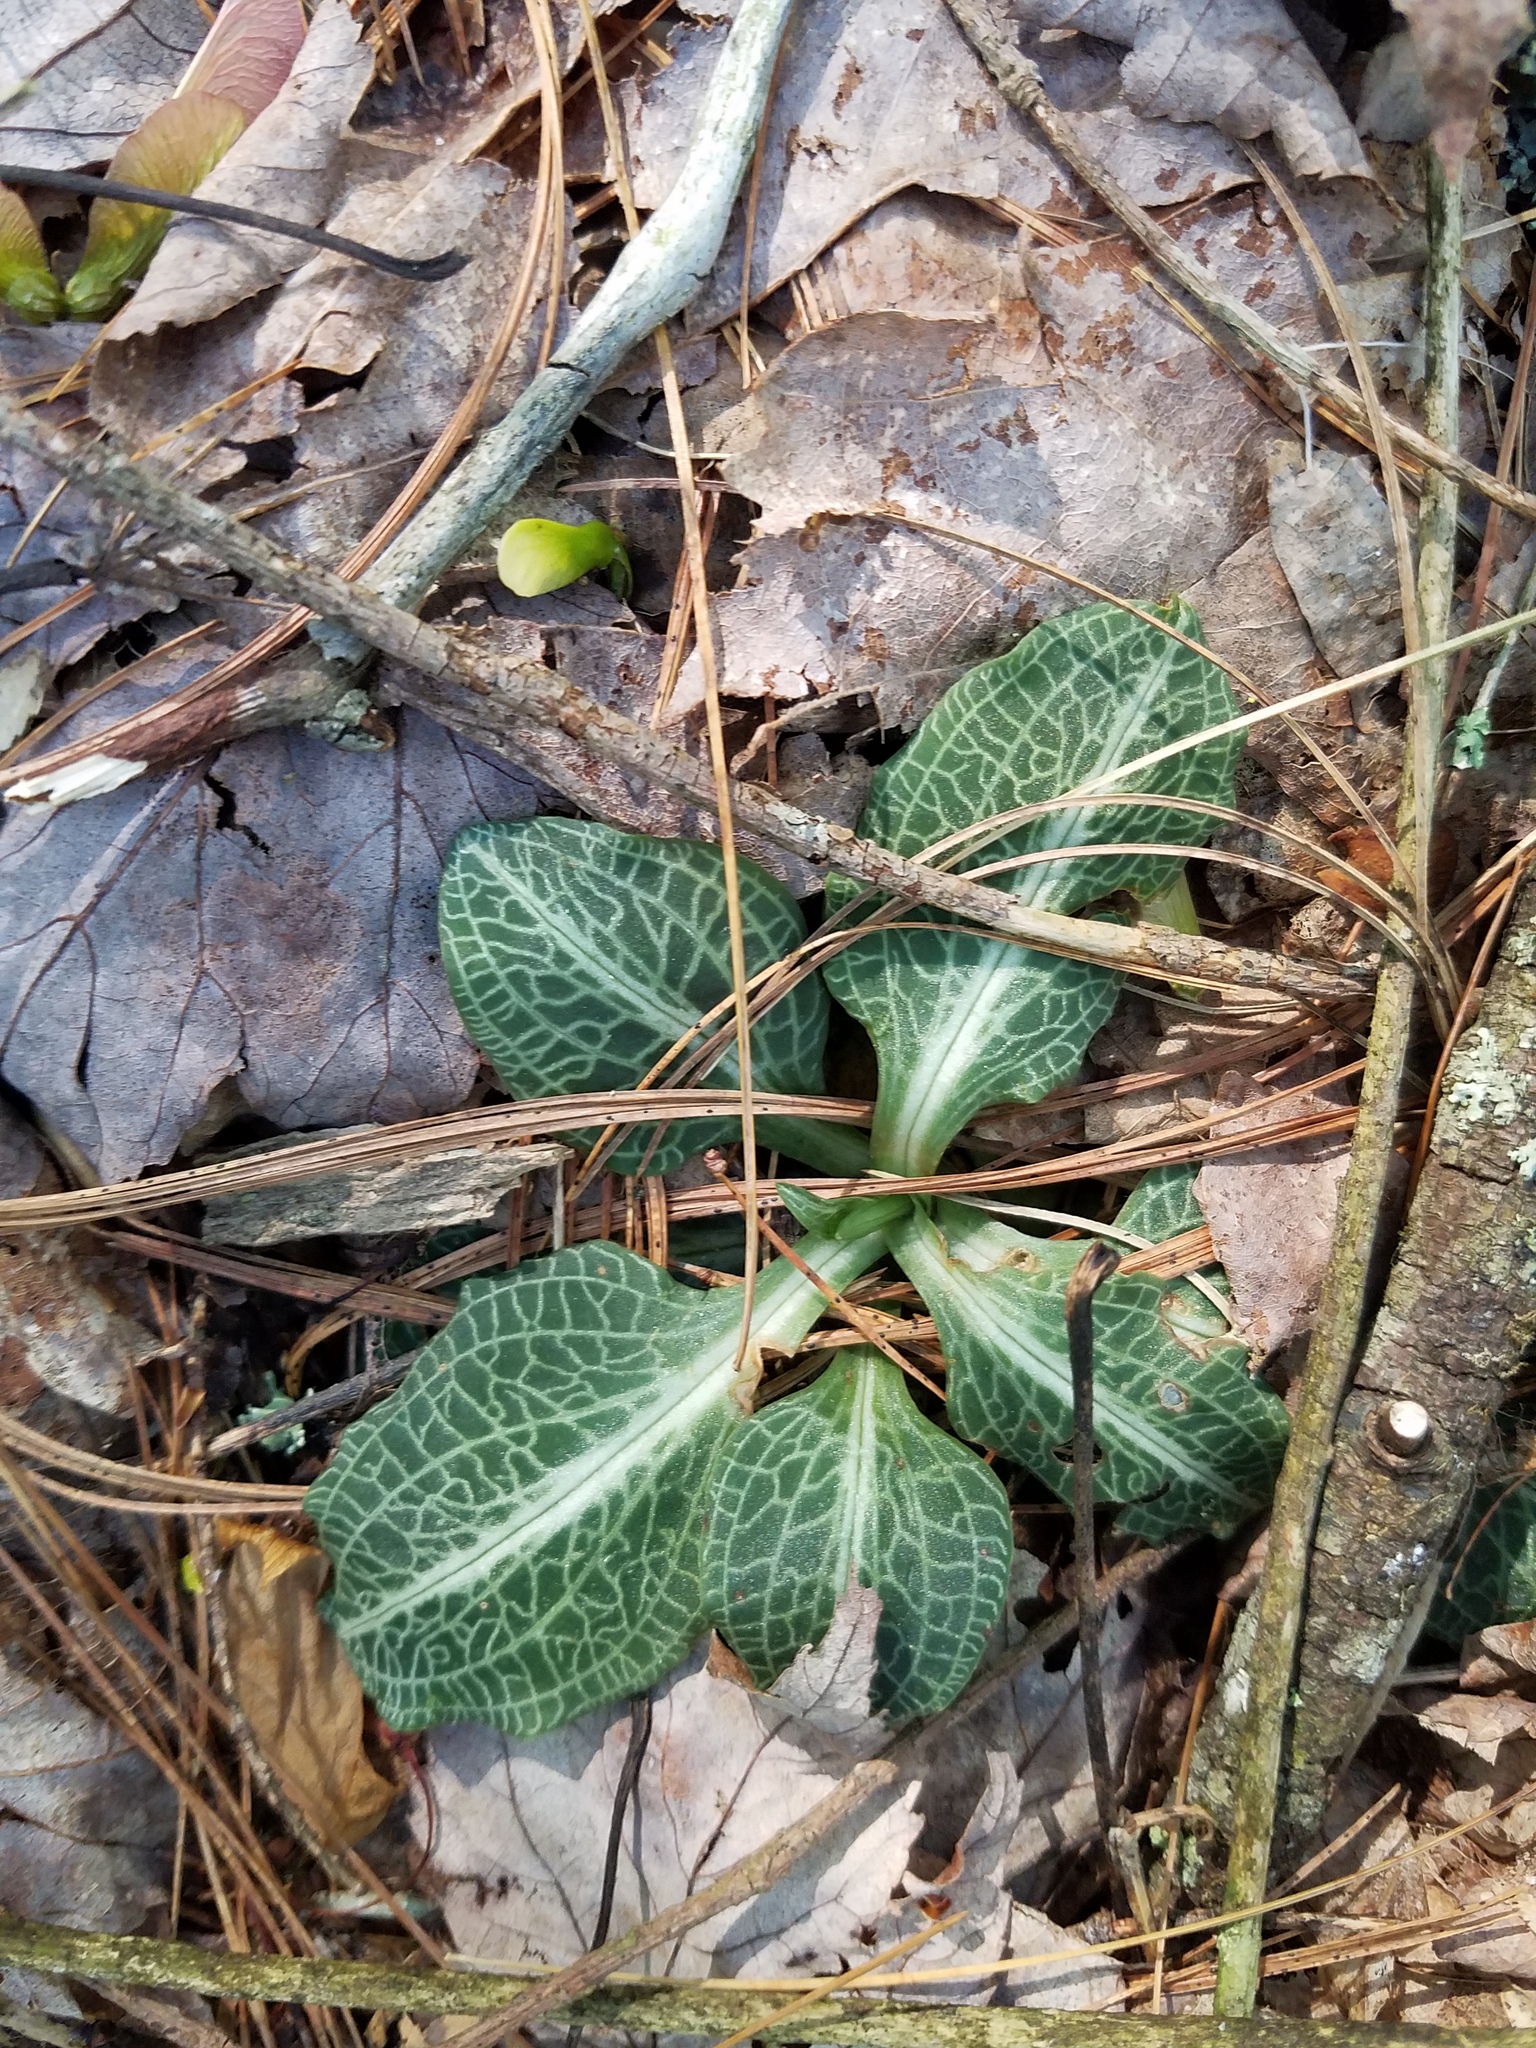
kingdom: Plantae
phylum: Tracheophyta
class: Liliopsida
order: Asparagales
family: Orchidaceae
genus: Goodyera
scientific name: Goodyera pubescens
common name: Downy rattlesnake-plantain
